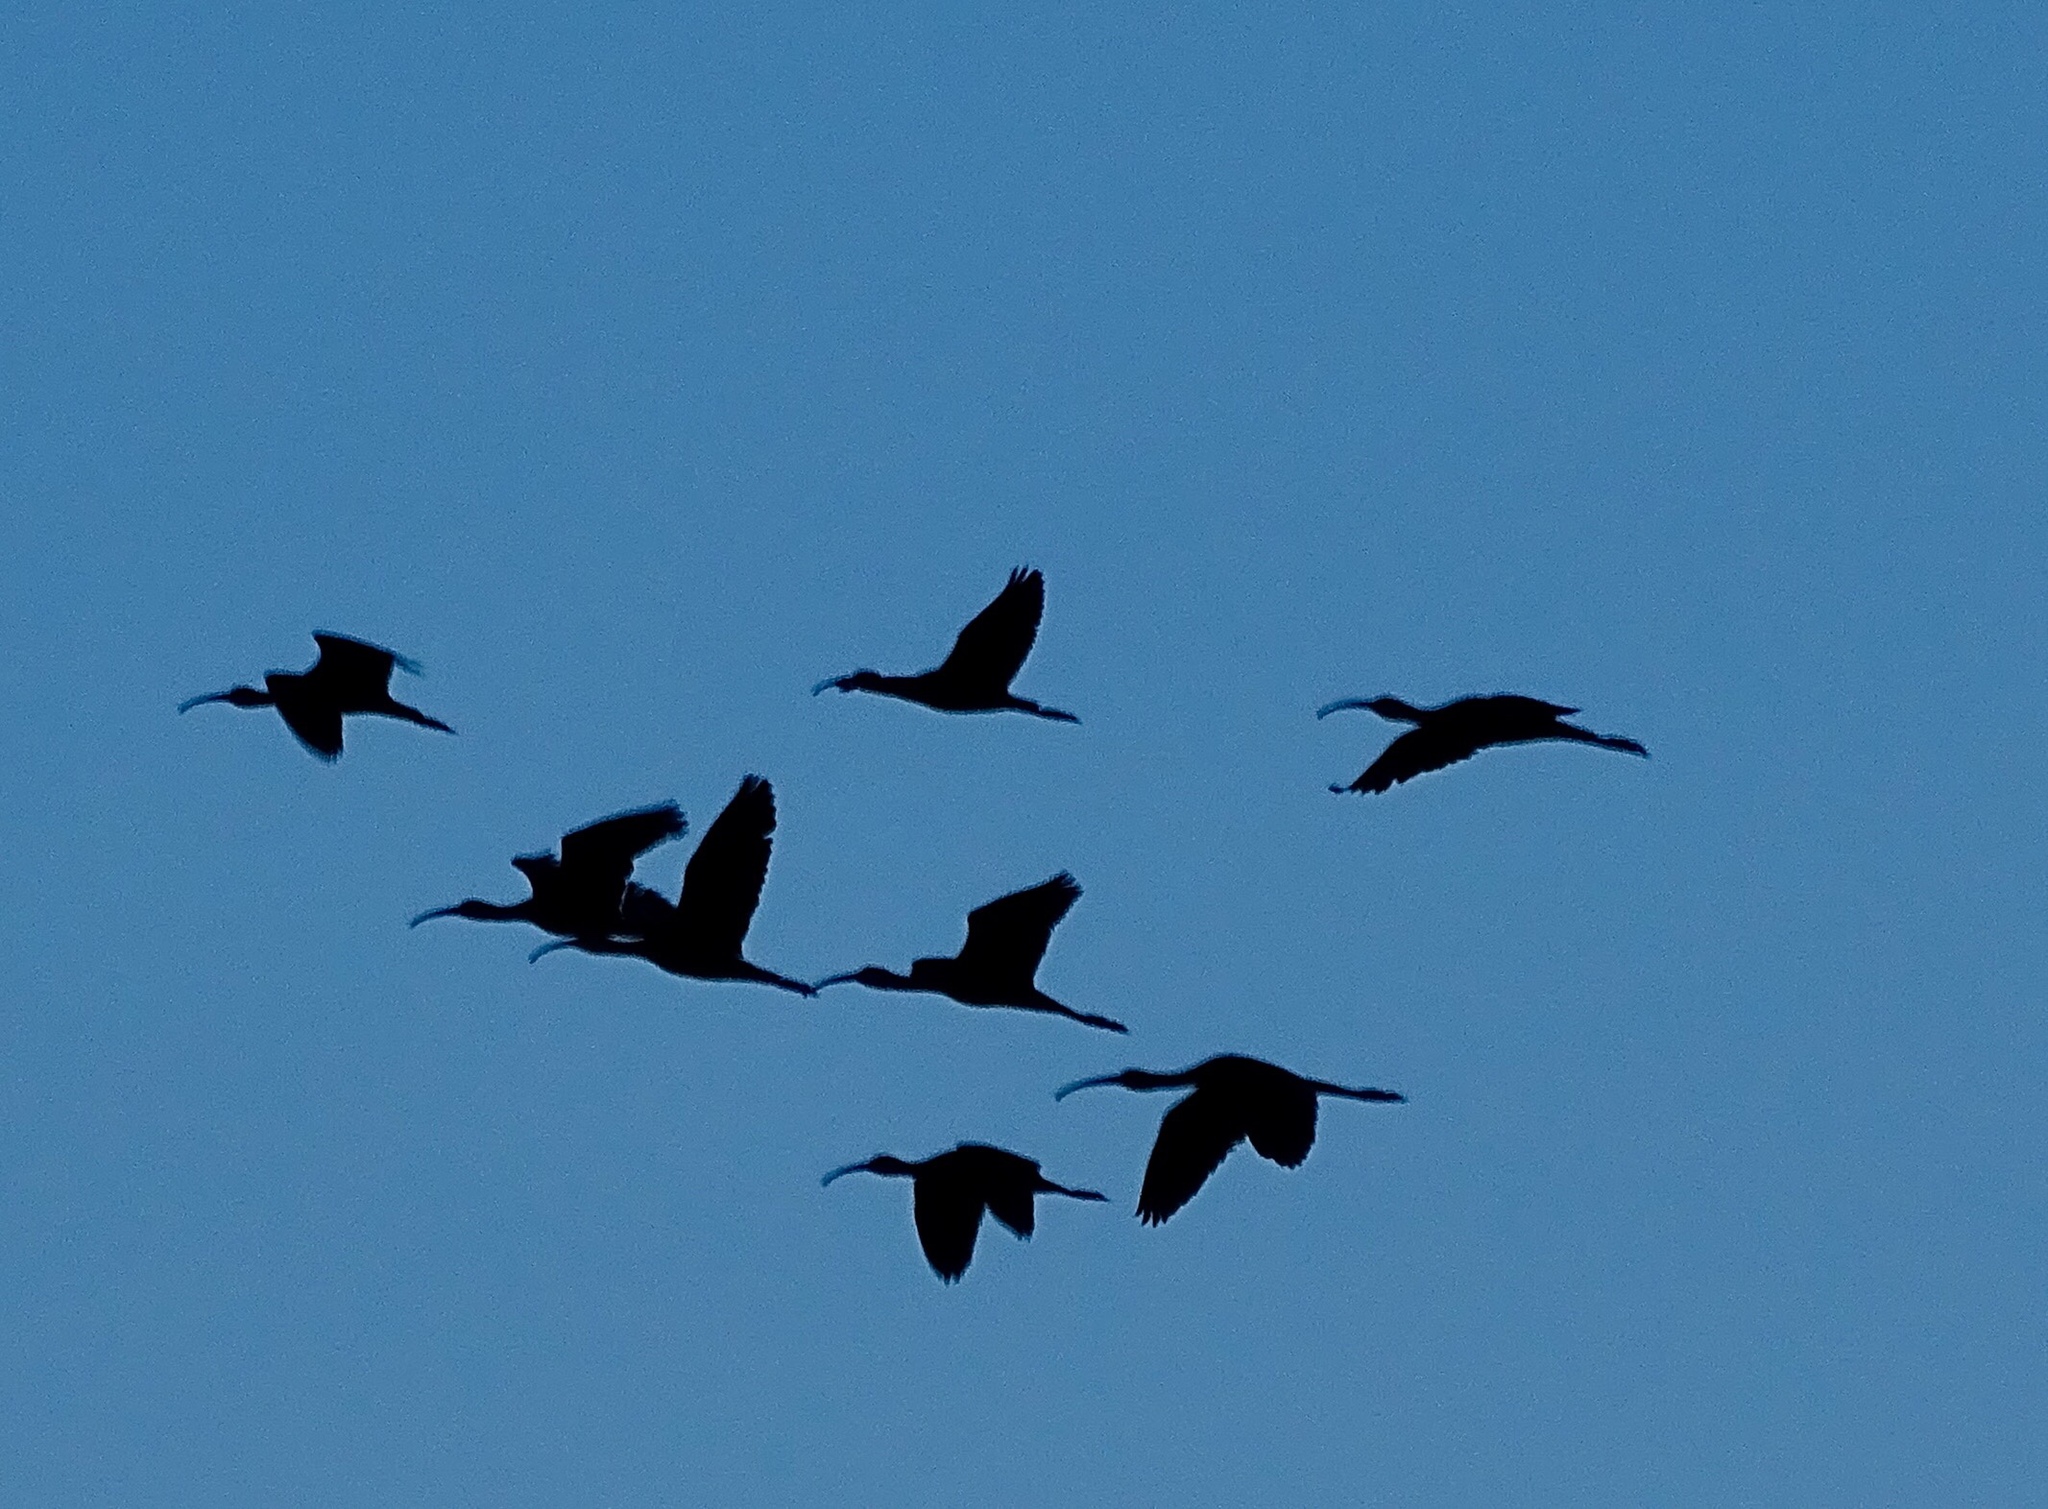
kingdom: Animalia
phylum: Chordata
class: Aves
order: Pelecaniformes
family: Threskiornithidae
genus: Plegadis
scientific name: Plegadis chihi
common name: White-faced ibis
